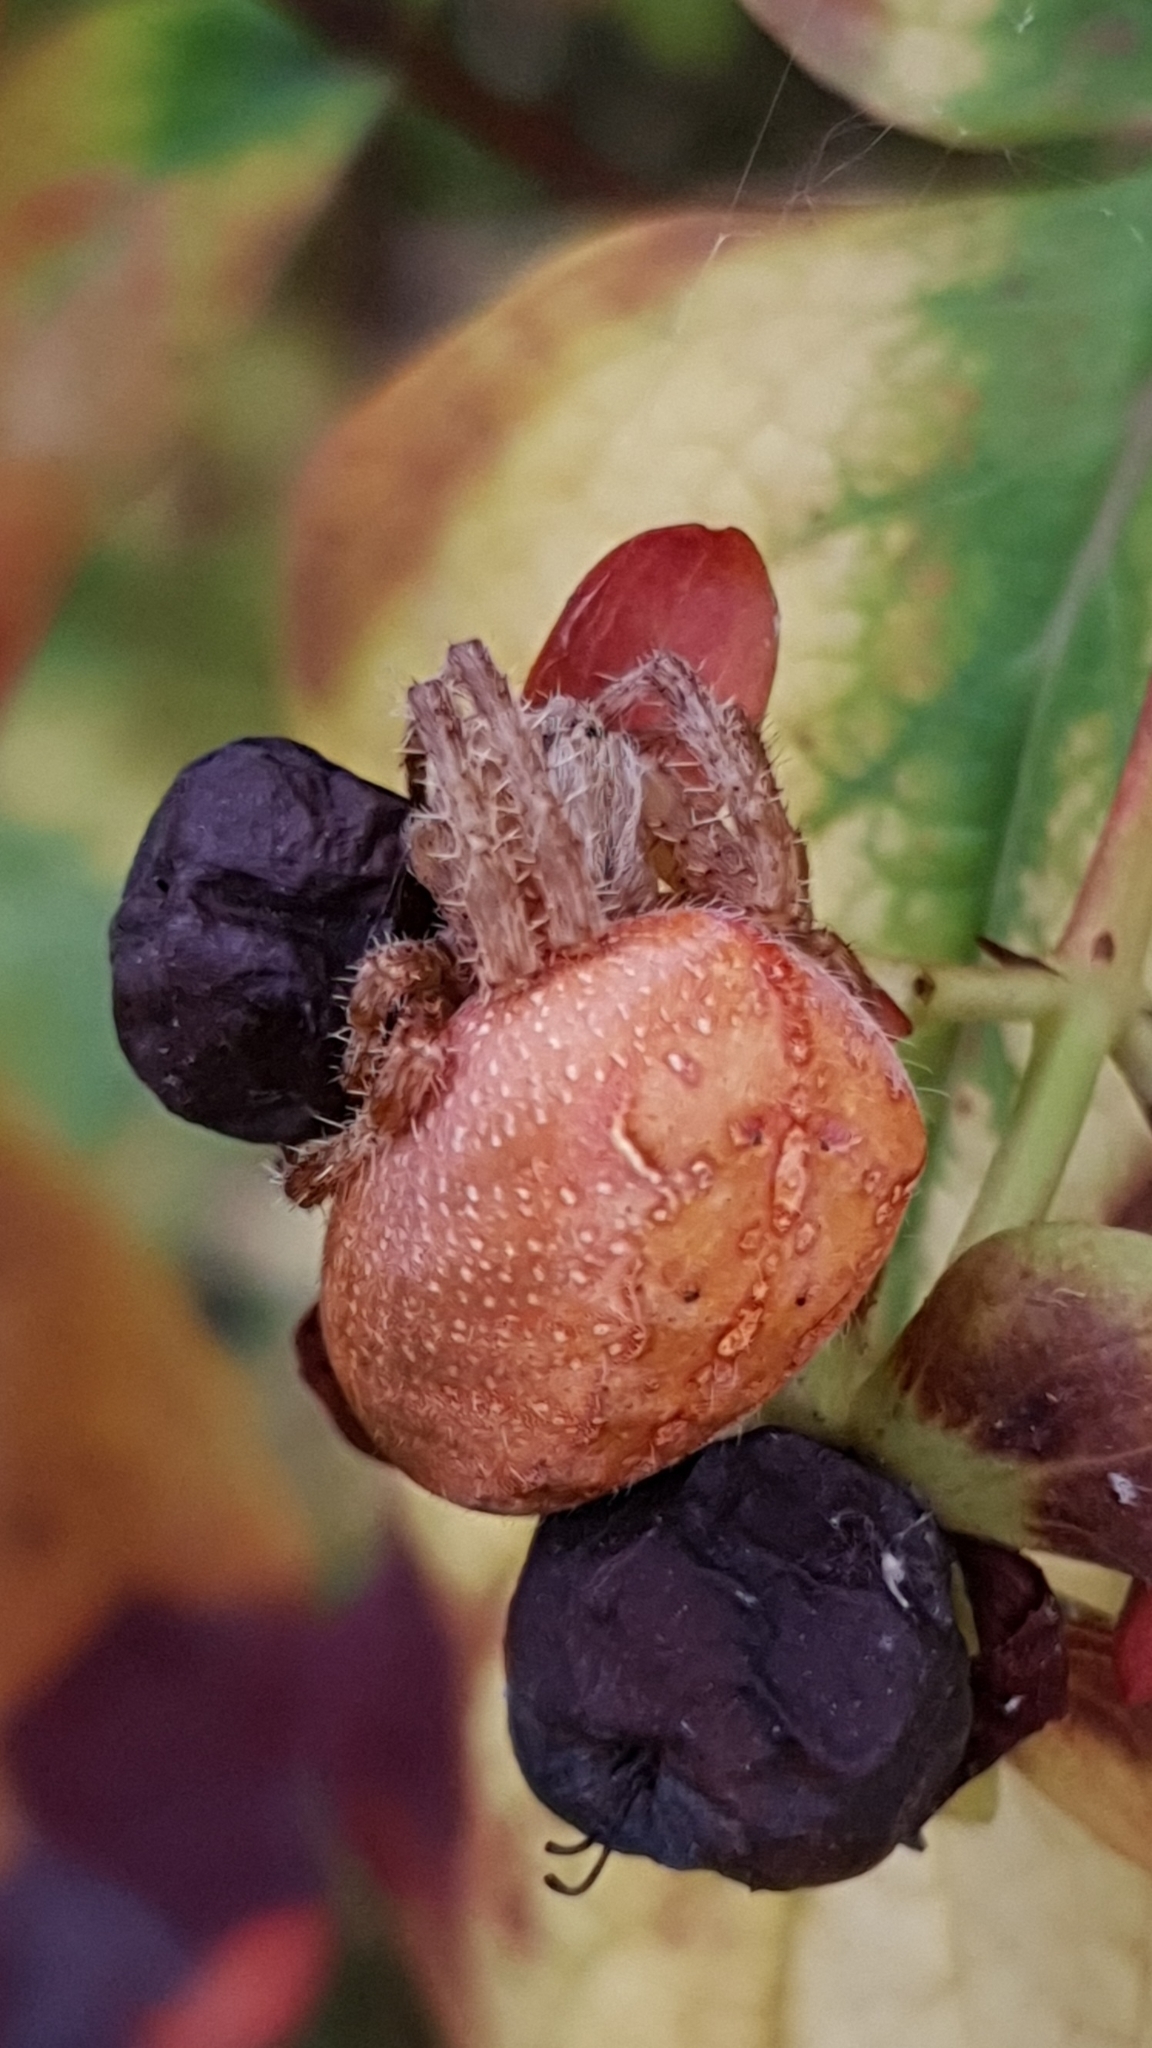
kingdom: Animalia
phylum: Arthropoda
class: Arachnida
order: Araneae
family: Araneidae
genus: Araneus
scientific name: Araneus diadematus
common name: Cross orbweaver
